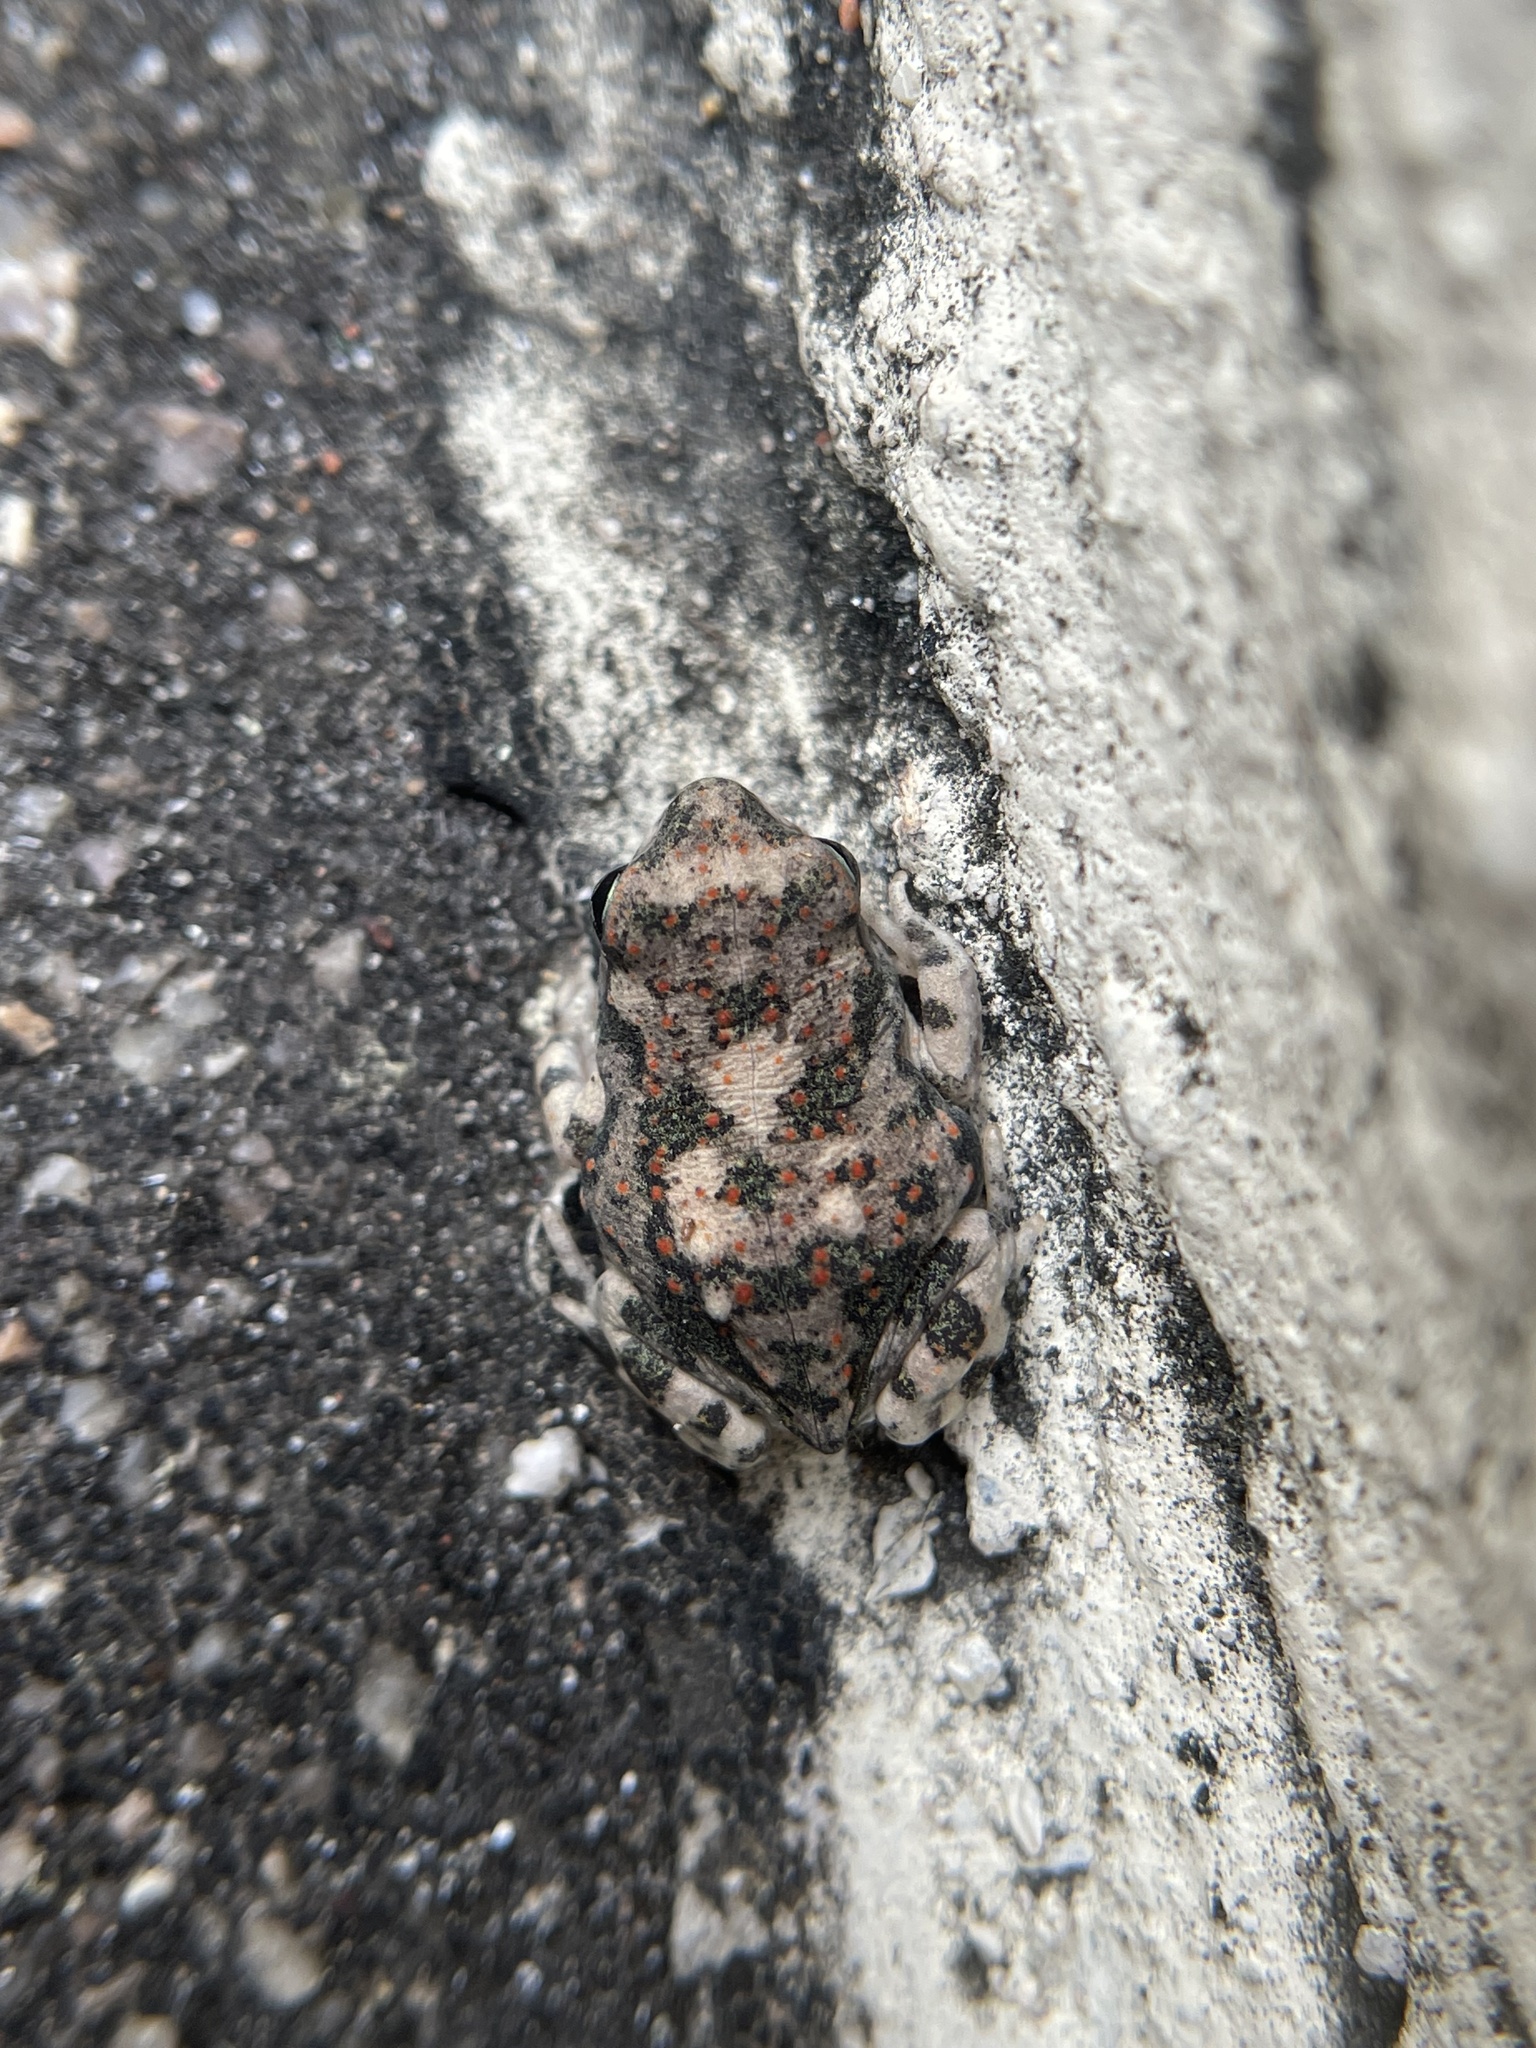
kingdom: Animalia
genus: Firouzophrynus
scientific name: Firouzophrynus
